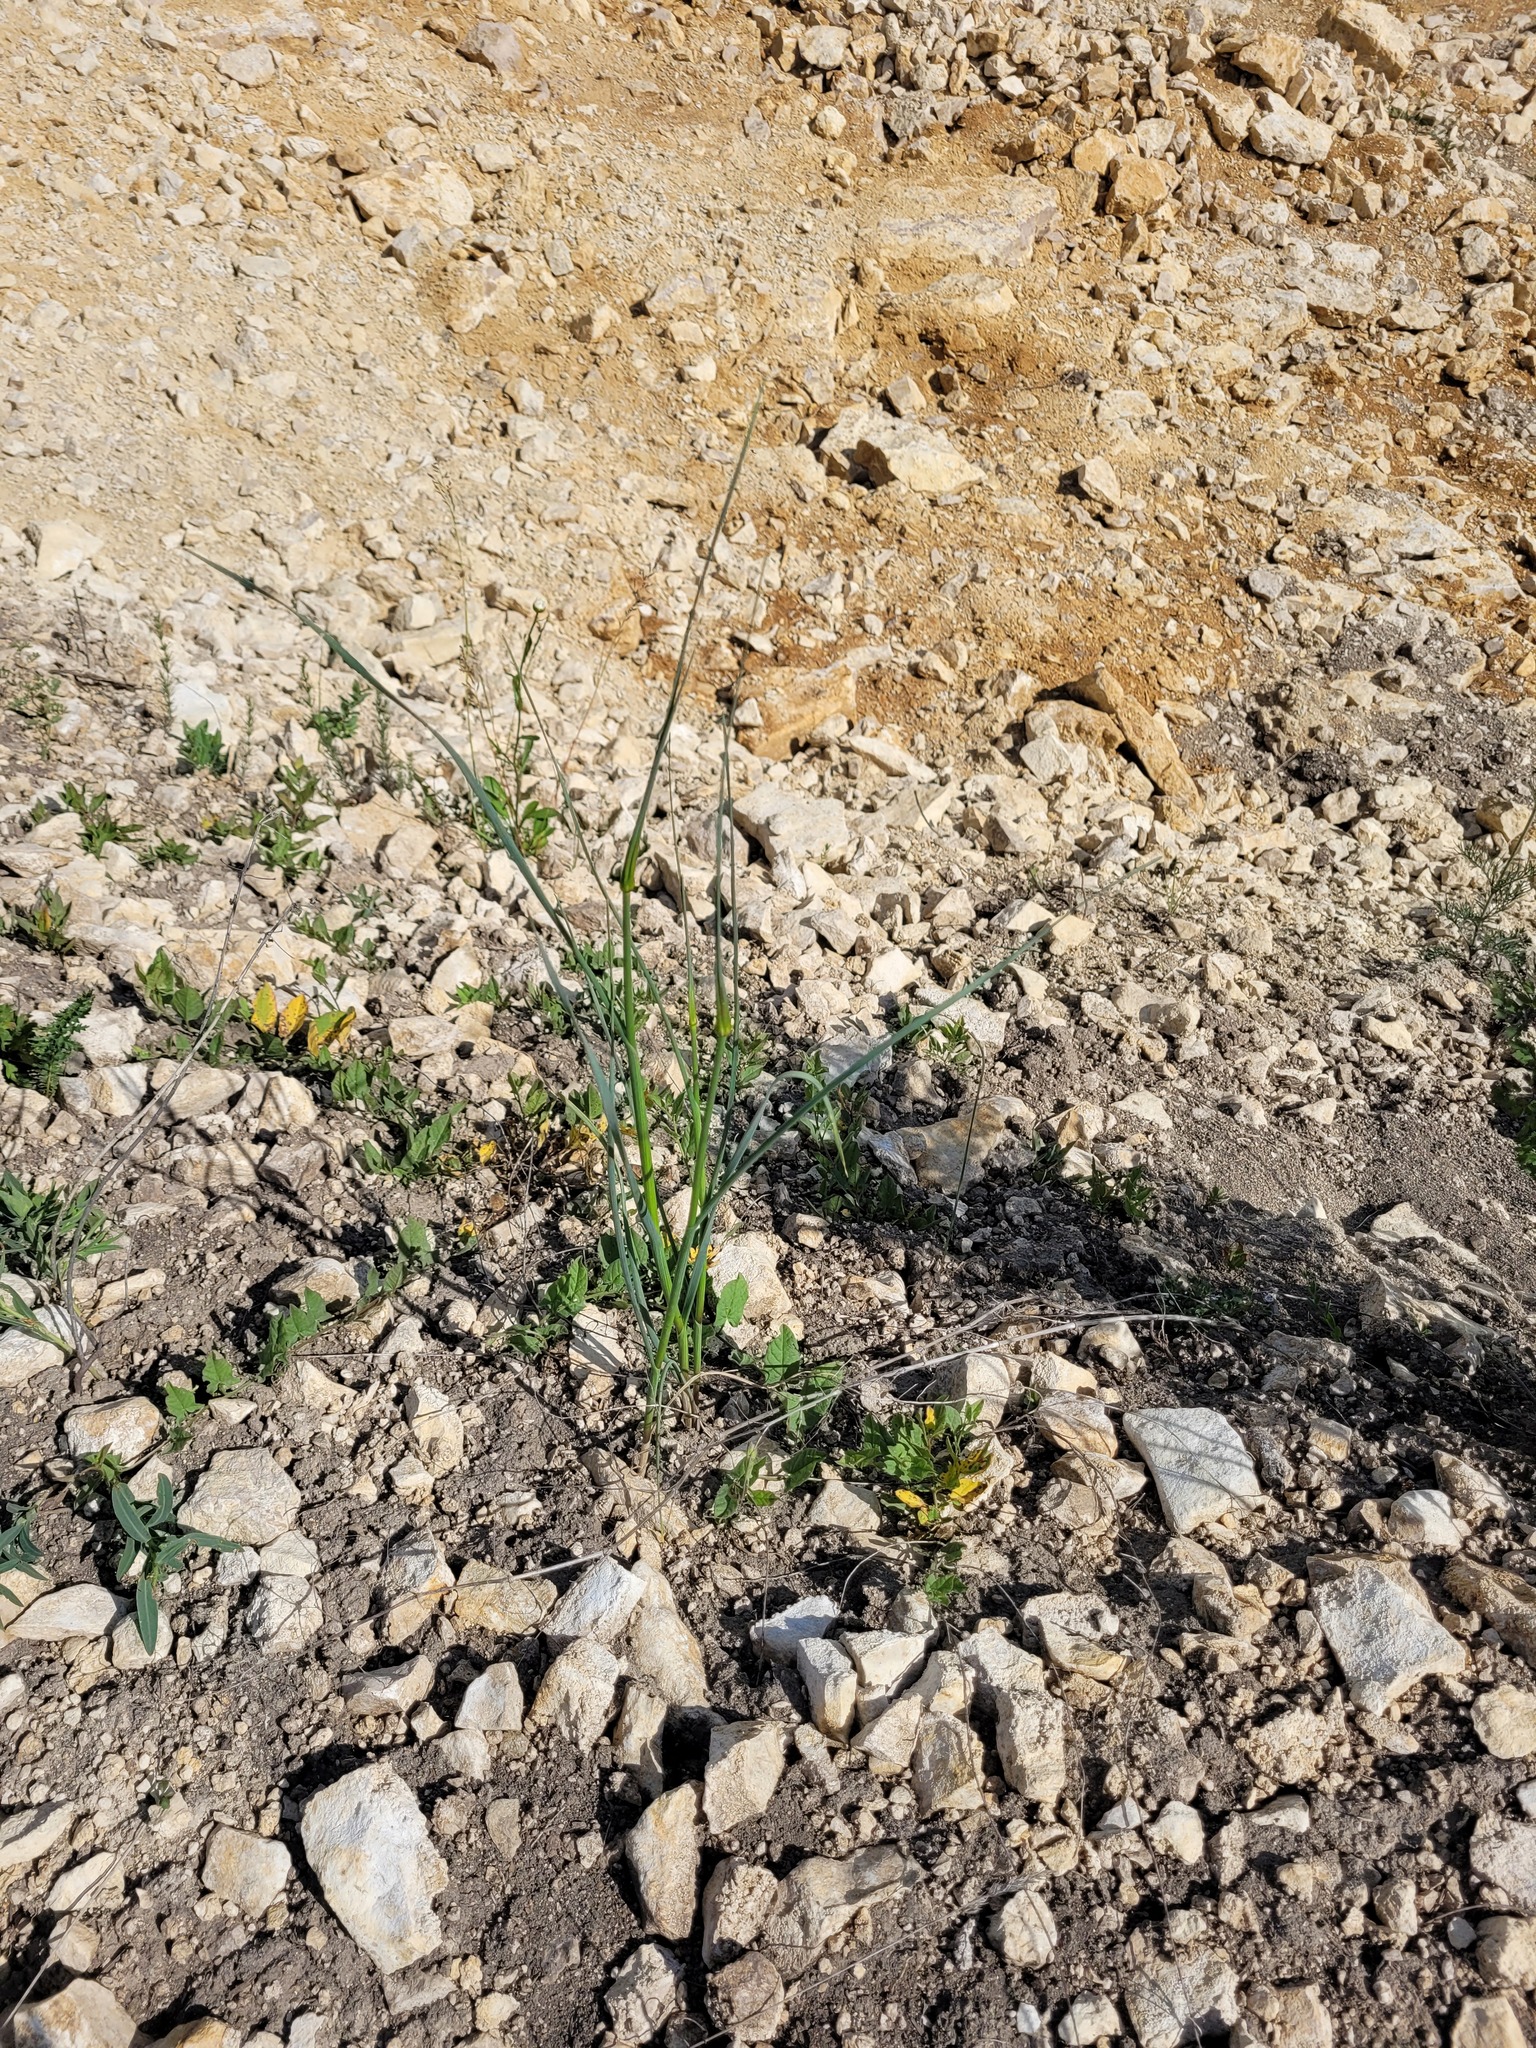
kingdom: Plantae
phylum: Tracheophyta
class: Liliopsida
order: Asparagales
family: Amaryllidaceae
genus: Allium
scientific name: Allium oleraceum
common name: Field garlic
